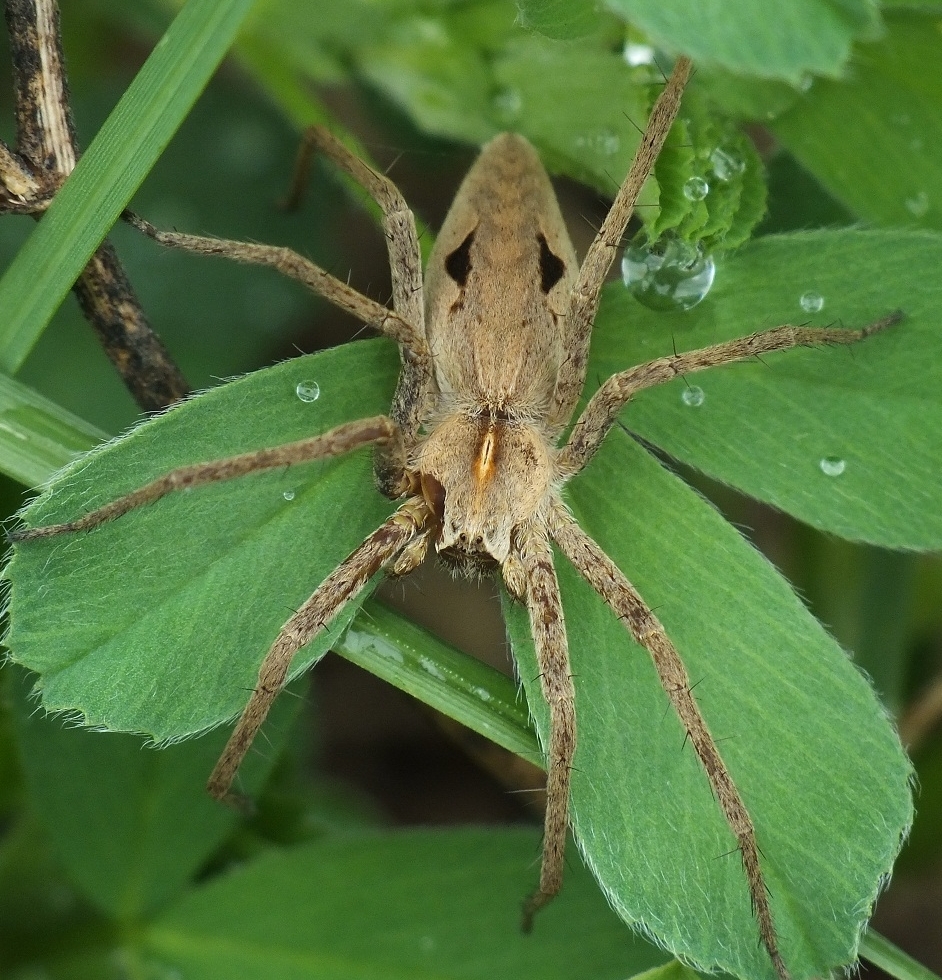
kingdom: Animalia
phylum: Arthropoda
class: Arachnida
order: Araneae
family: Pisauridae
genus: Pisaura
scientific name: Pisaura
